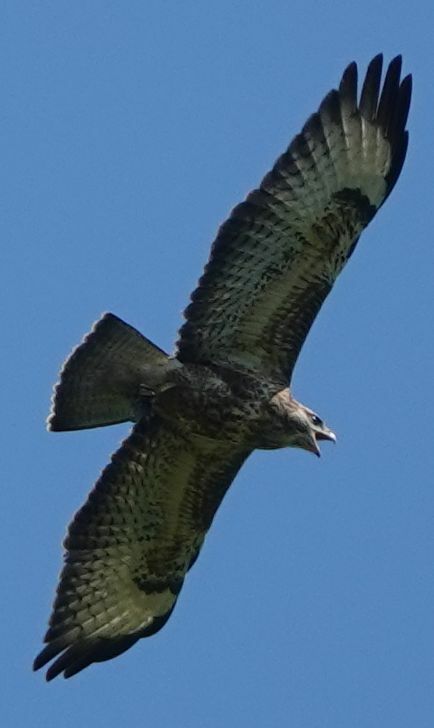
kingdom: Animalia
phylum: Chordata
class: Aves
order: Accipitriformes
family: Accipitridae
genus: Buteo
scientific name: Buteo buteo
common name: Common buzzard
